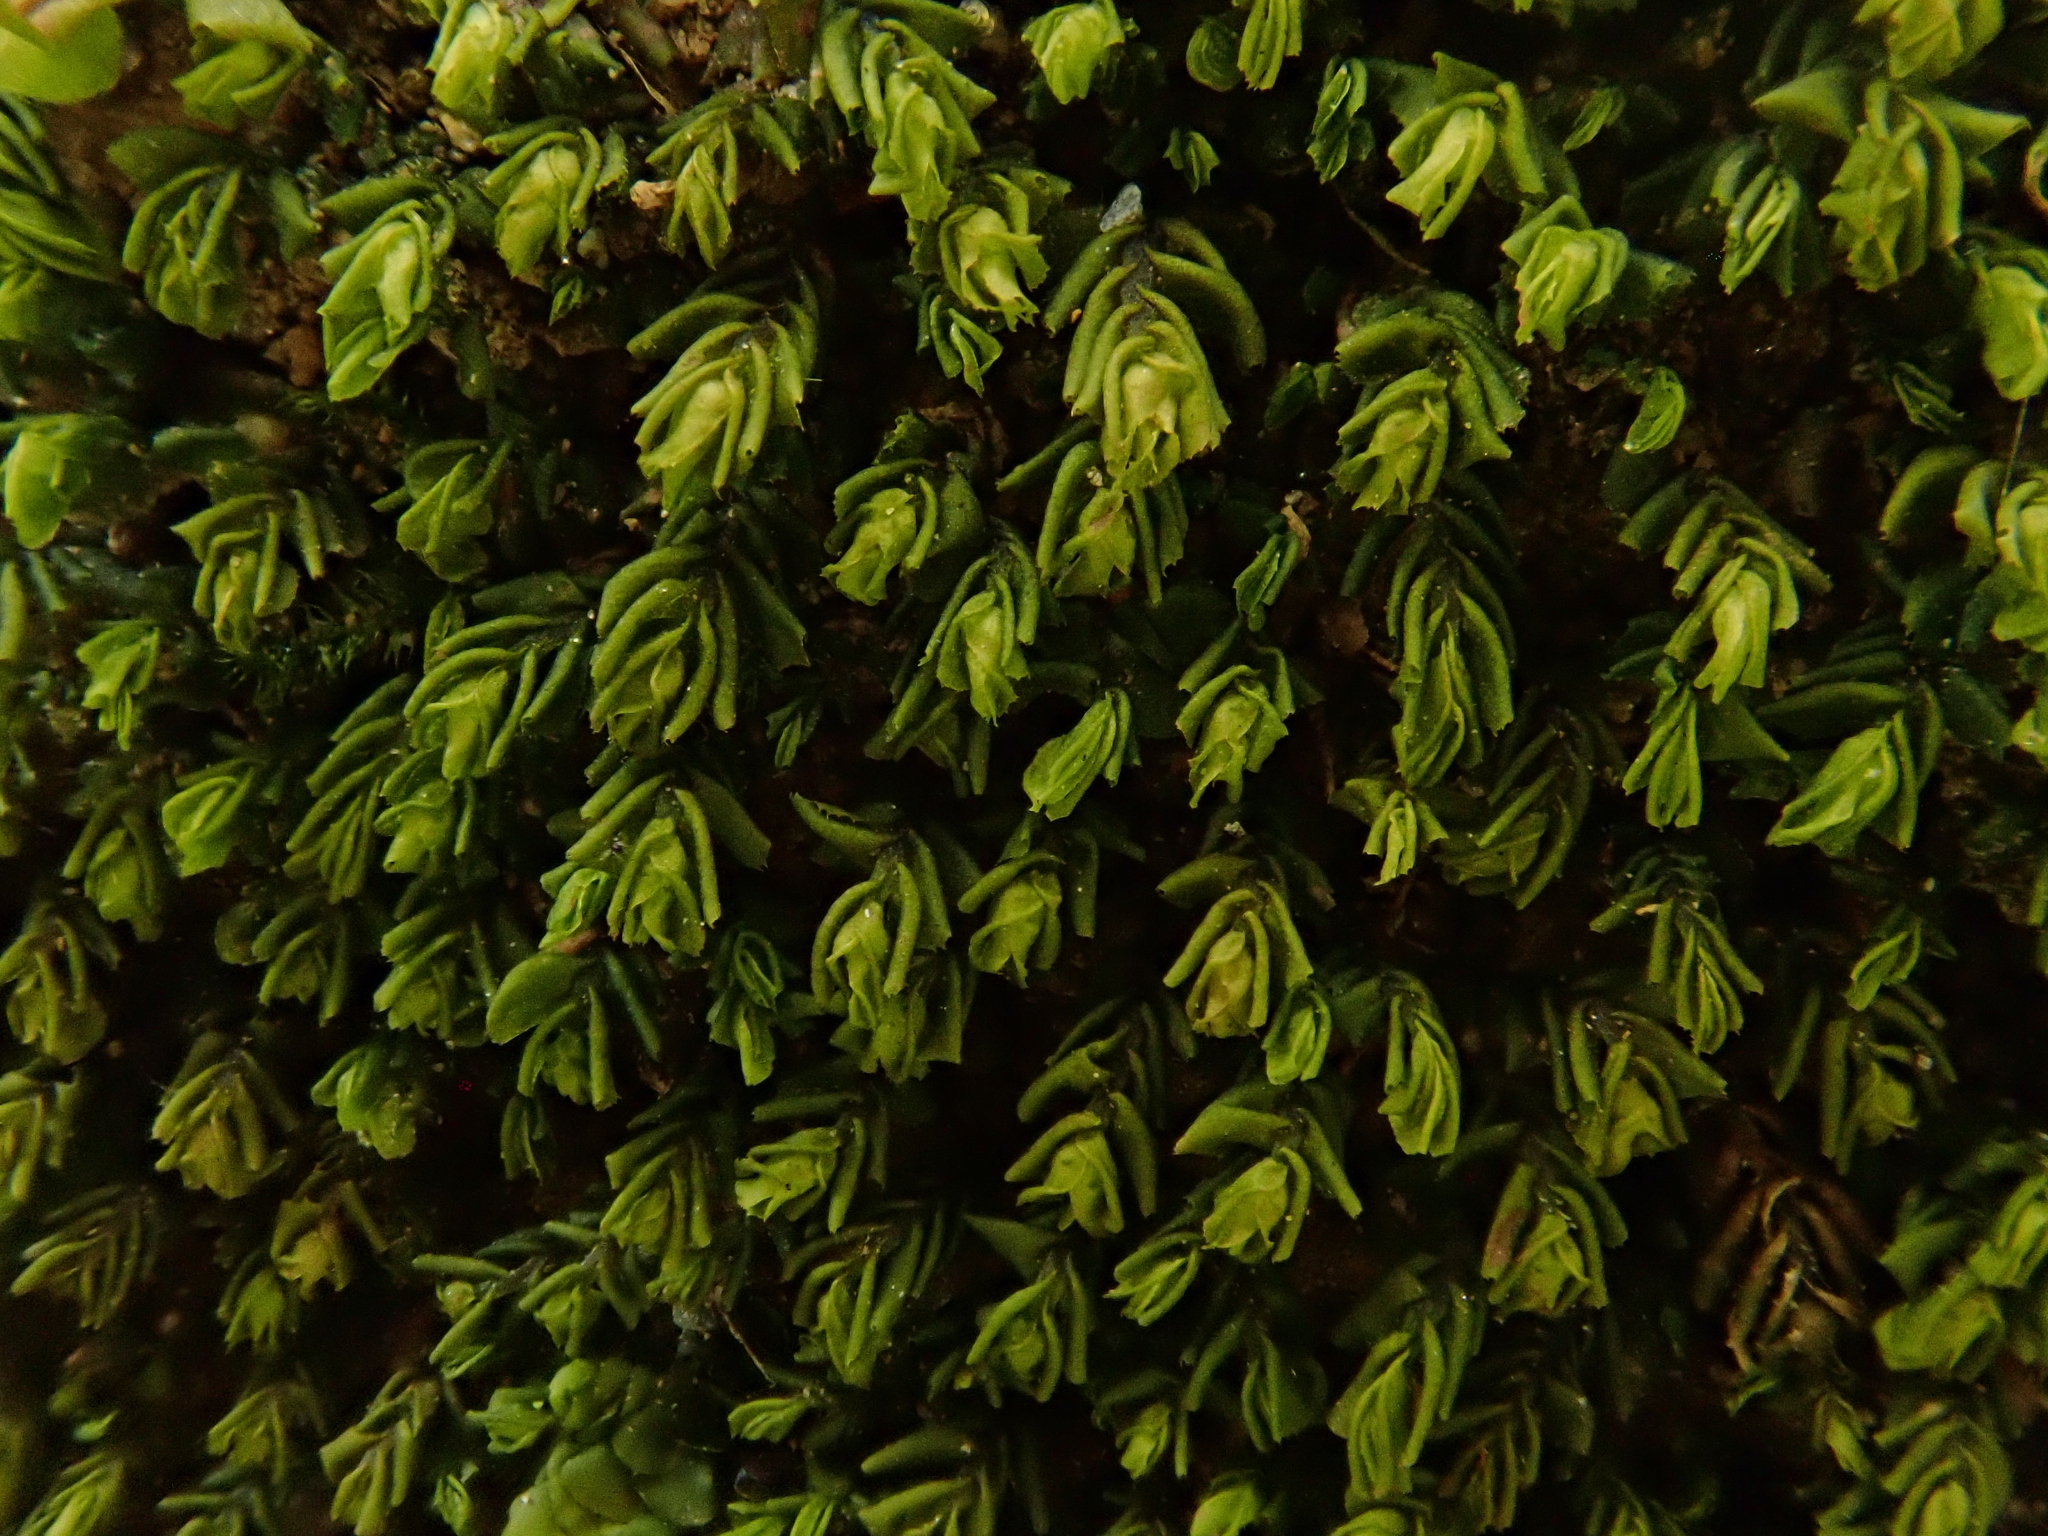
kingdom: Plantae
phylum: Marchantiophyta
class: Jungermanniopsida
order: Jungermanniales
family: Plagiochilaceae
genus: Plagiochila
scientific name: Plagiochila porelloides
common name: Lesser featherwort
